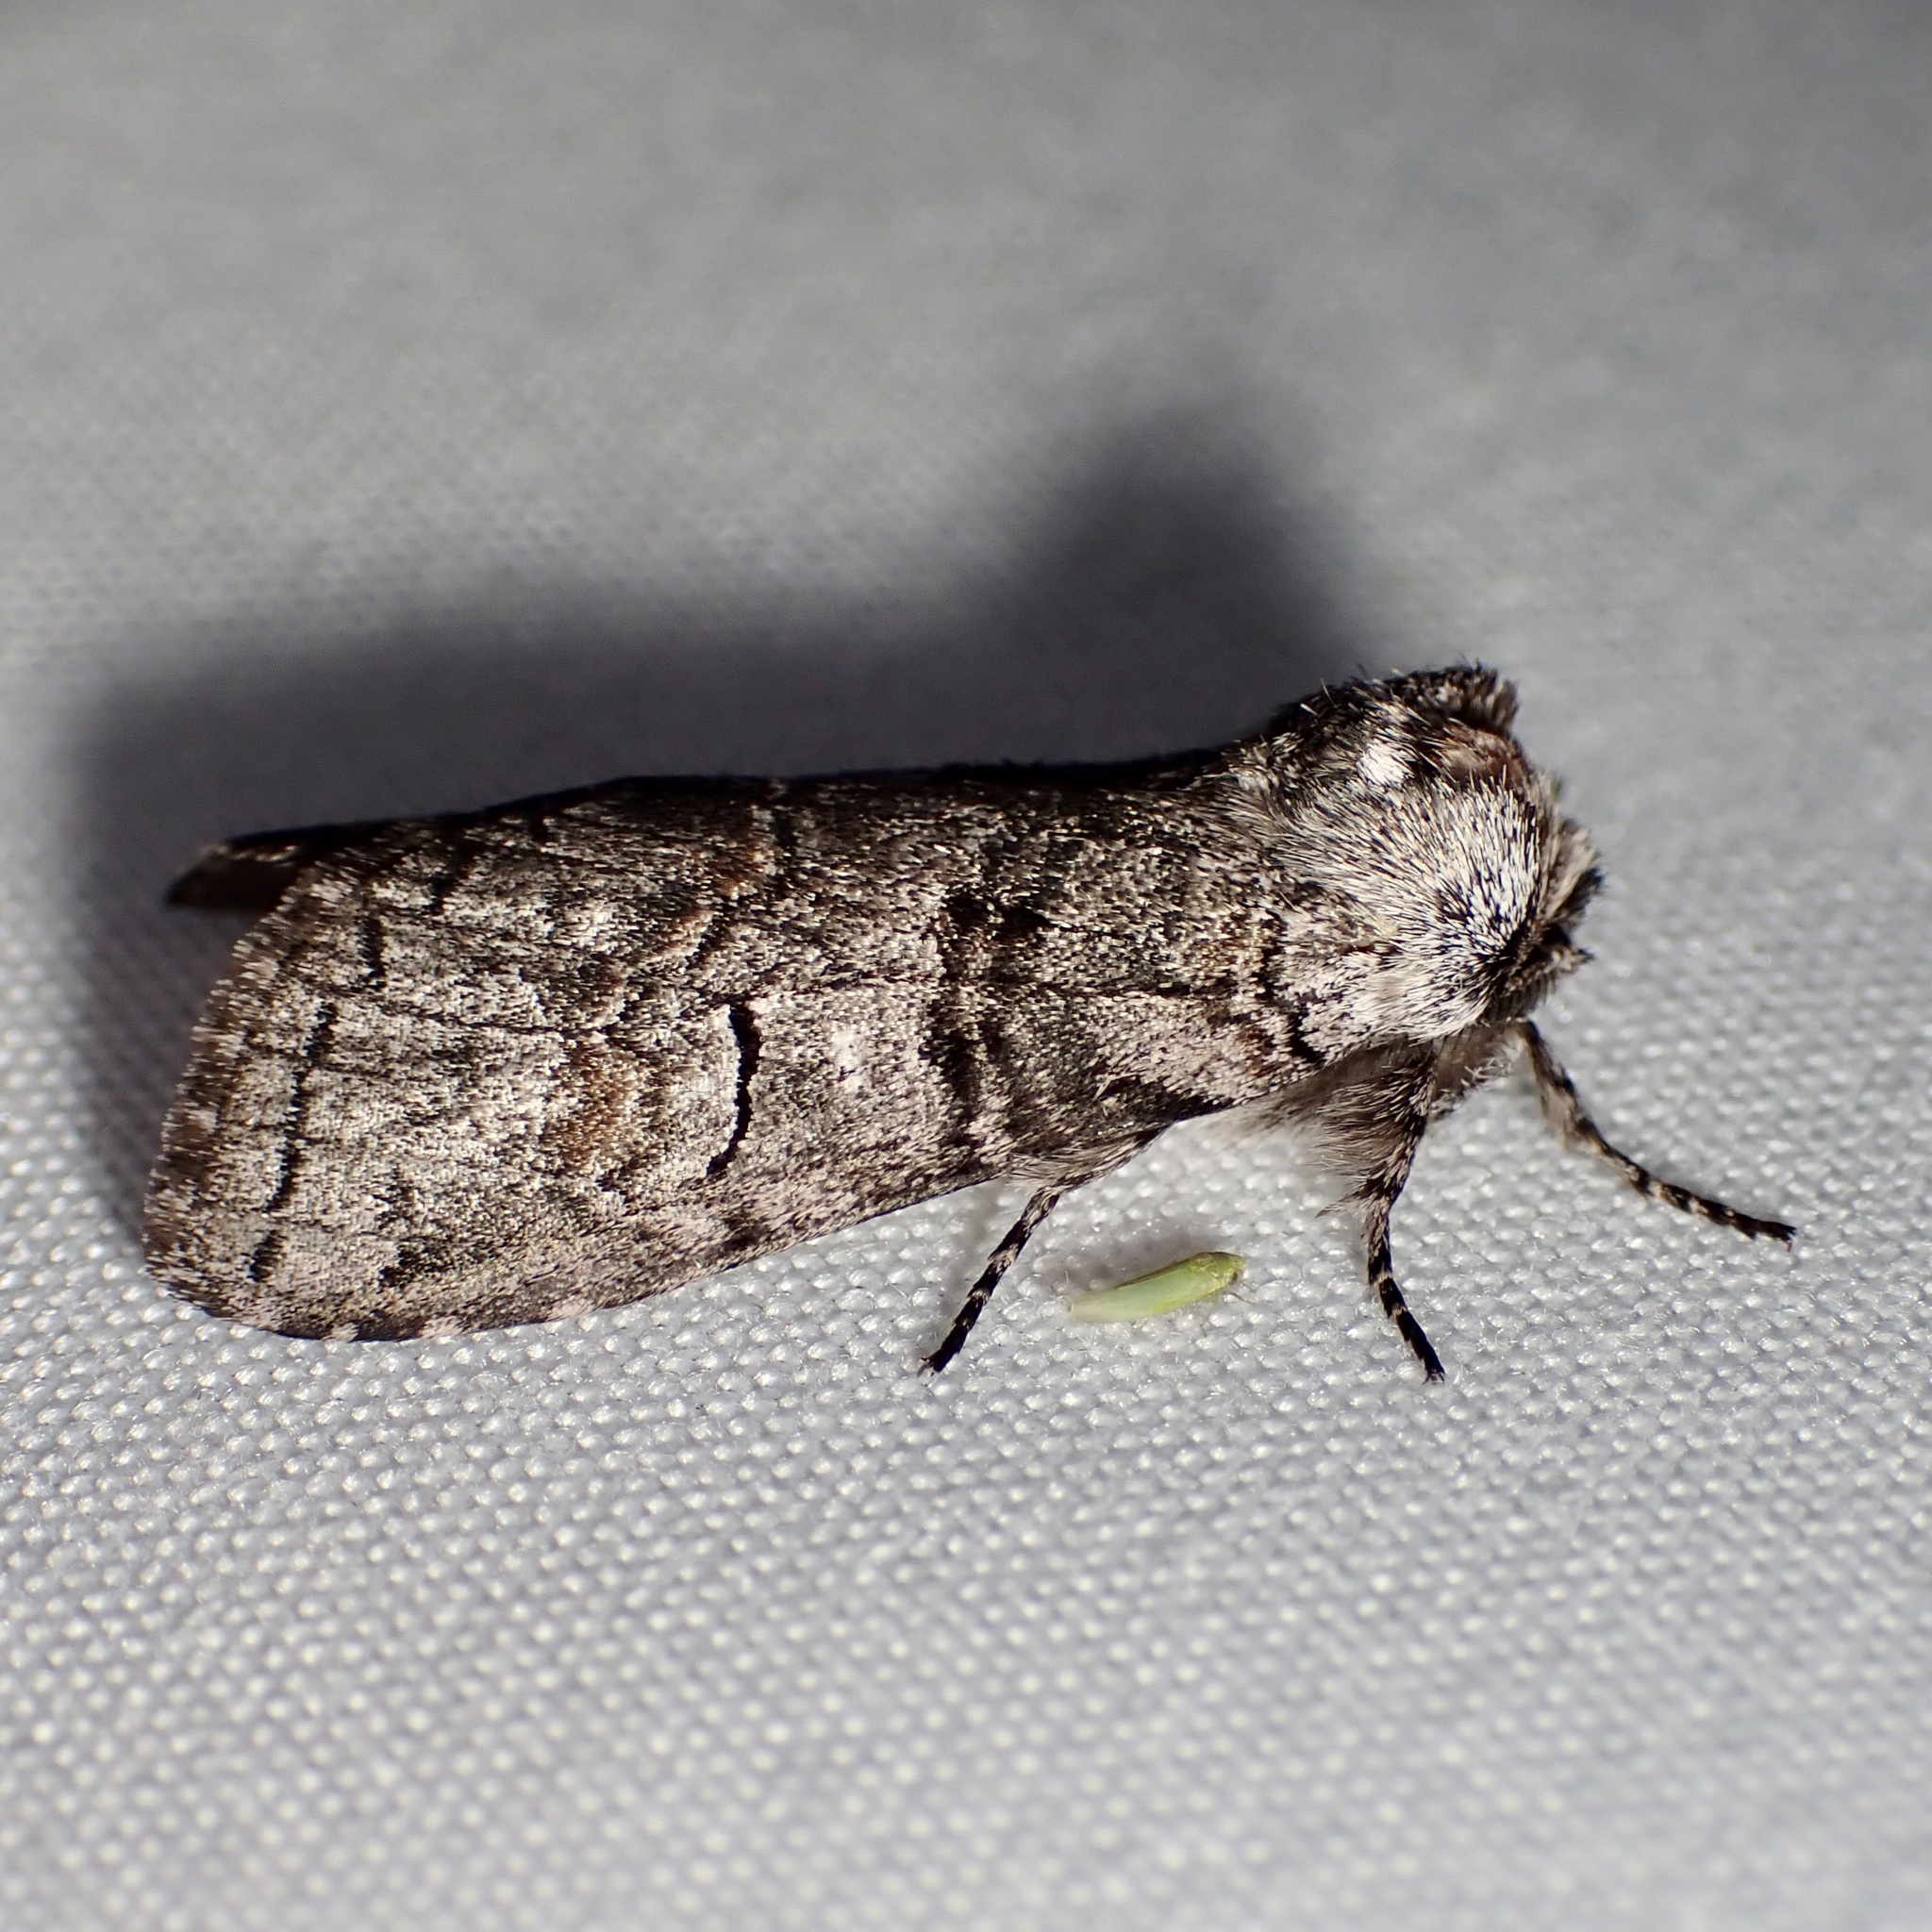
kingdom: Animalia
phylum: Arthropoda
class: Insecta
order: Lepidoptera
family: Notodontidae
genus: Afilia
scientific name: Afilia oslari
